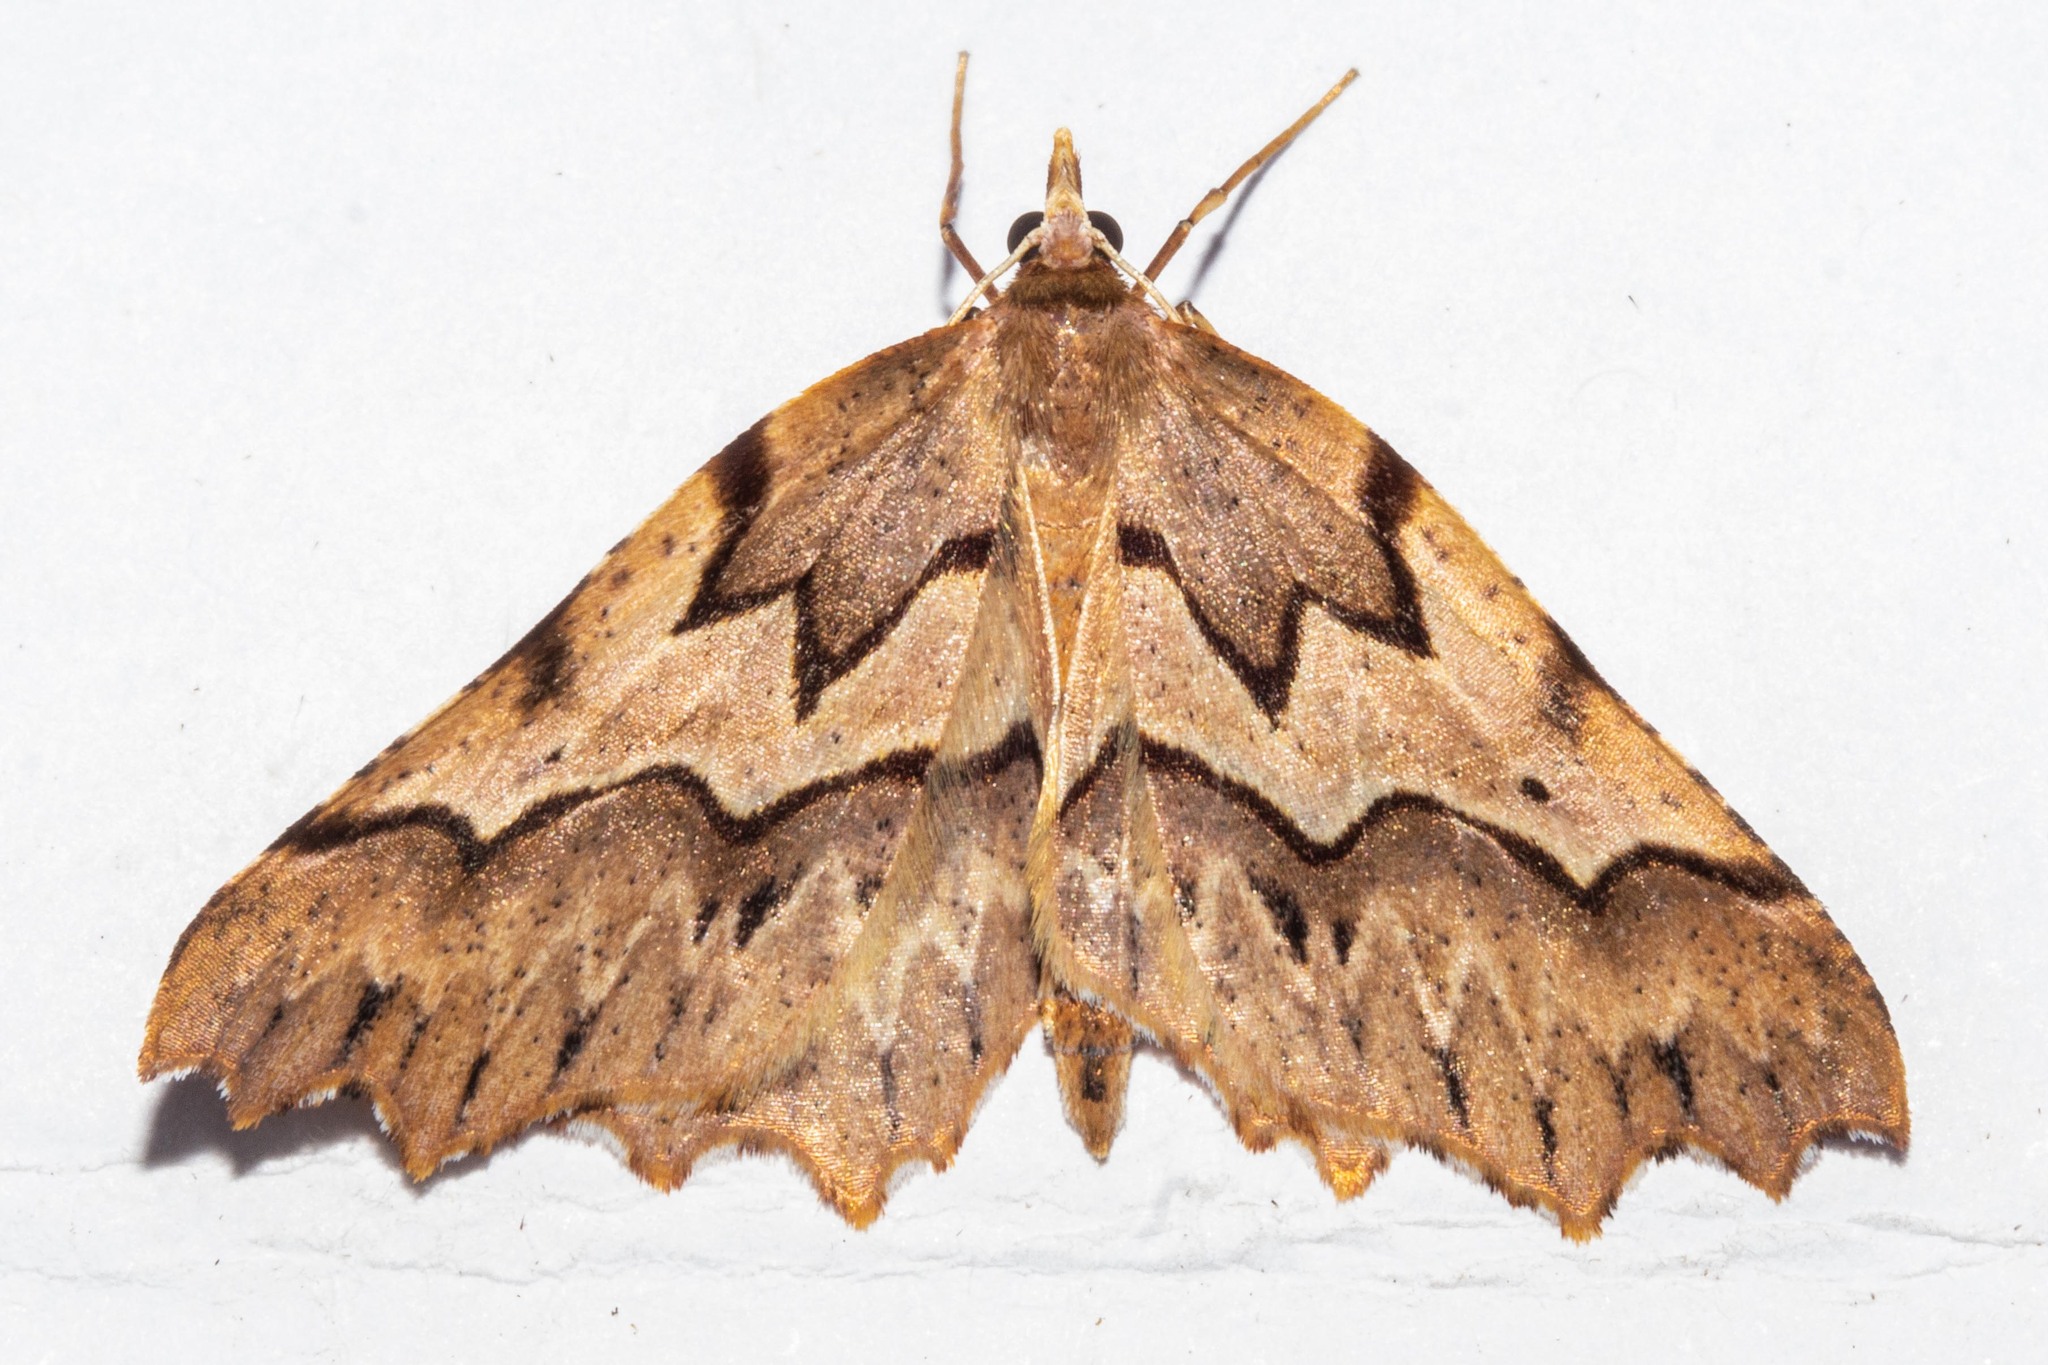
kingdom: Animalia
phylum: Arthropoda
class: Insecta
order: Lepidoptera
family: Geometridae
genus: Ischalis
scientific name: Ischalis fortinata
